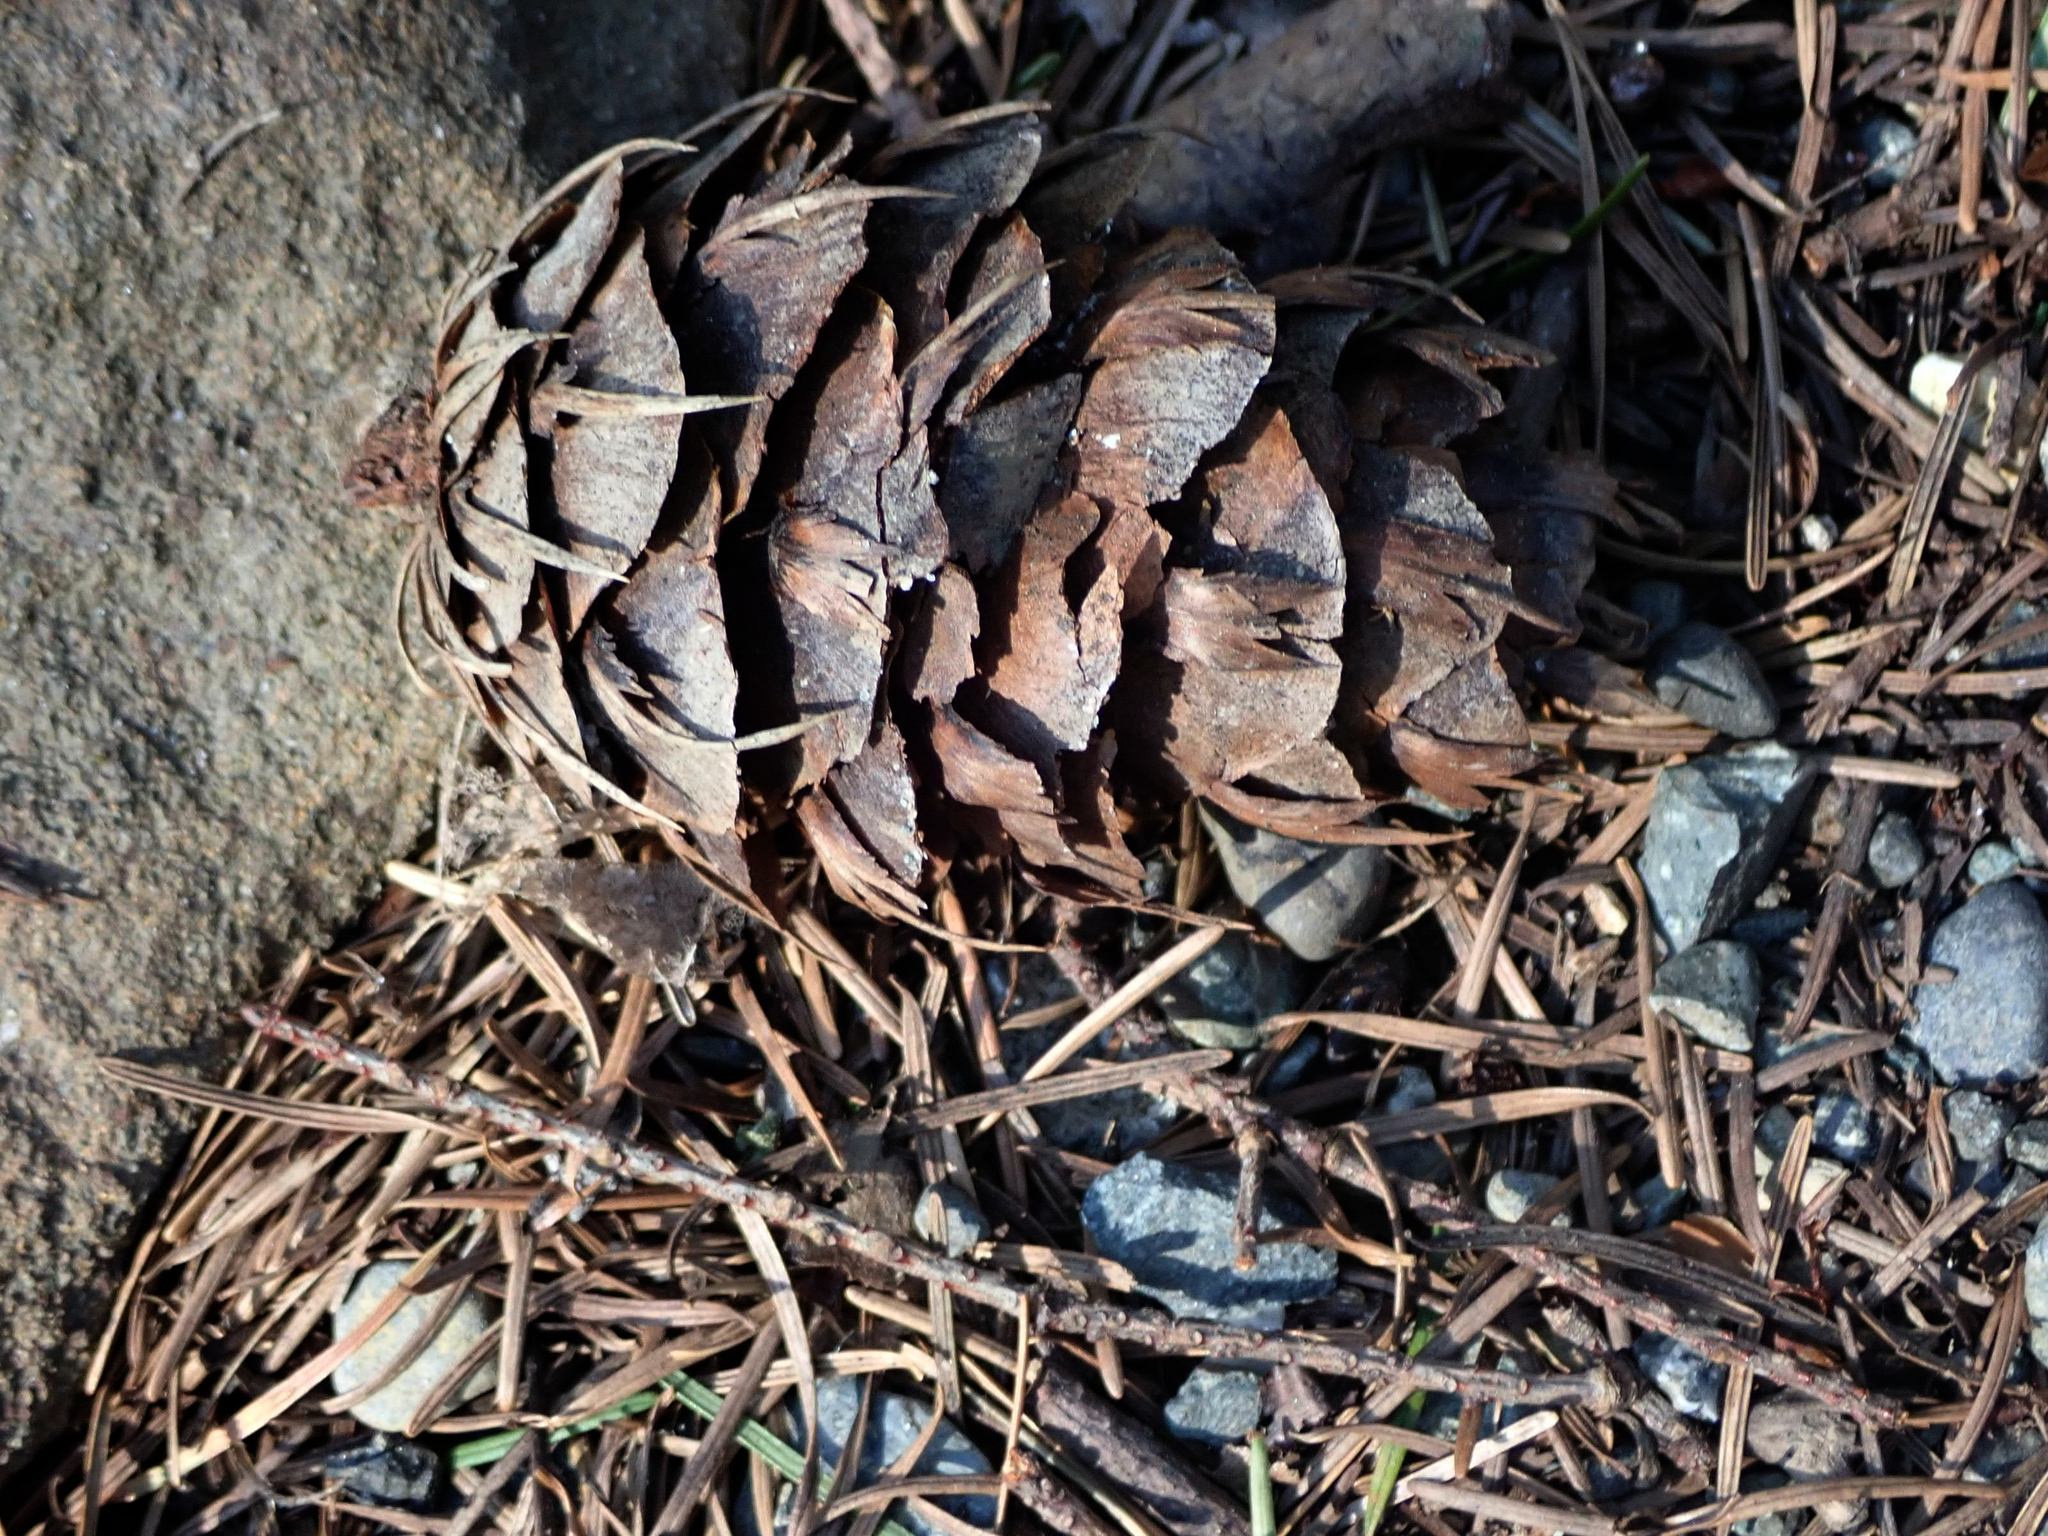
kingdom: Plantae
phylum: Tracheophyta
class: Pinopsida
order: Pinales
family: Pinaceae
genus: Pseudotsuga
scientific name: Pseudotsuga menziesii
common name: Douglas fir
